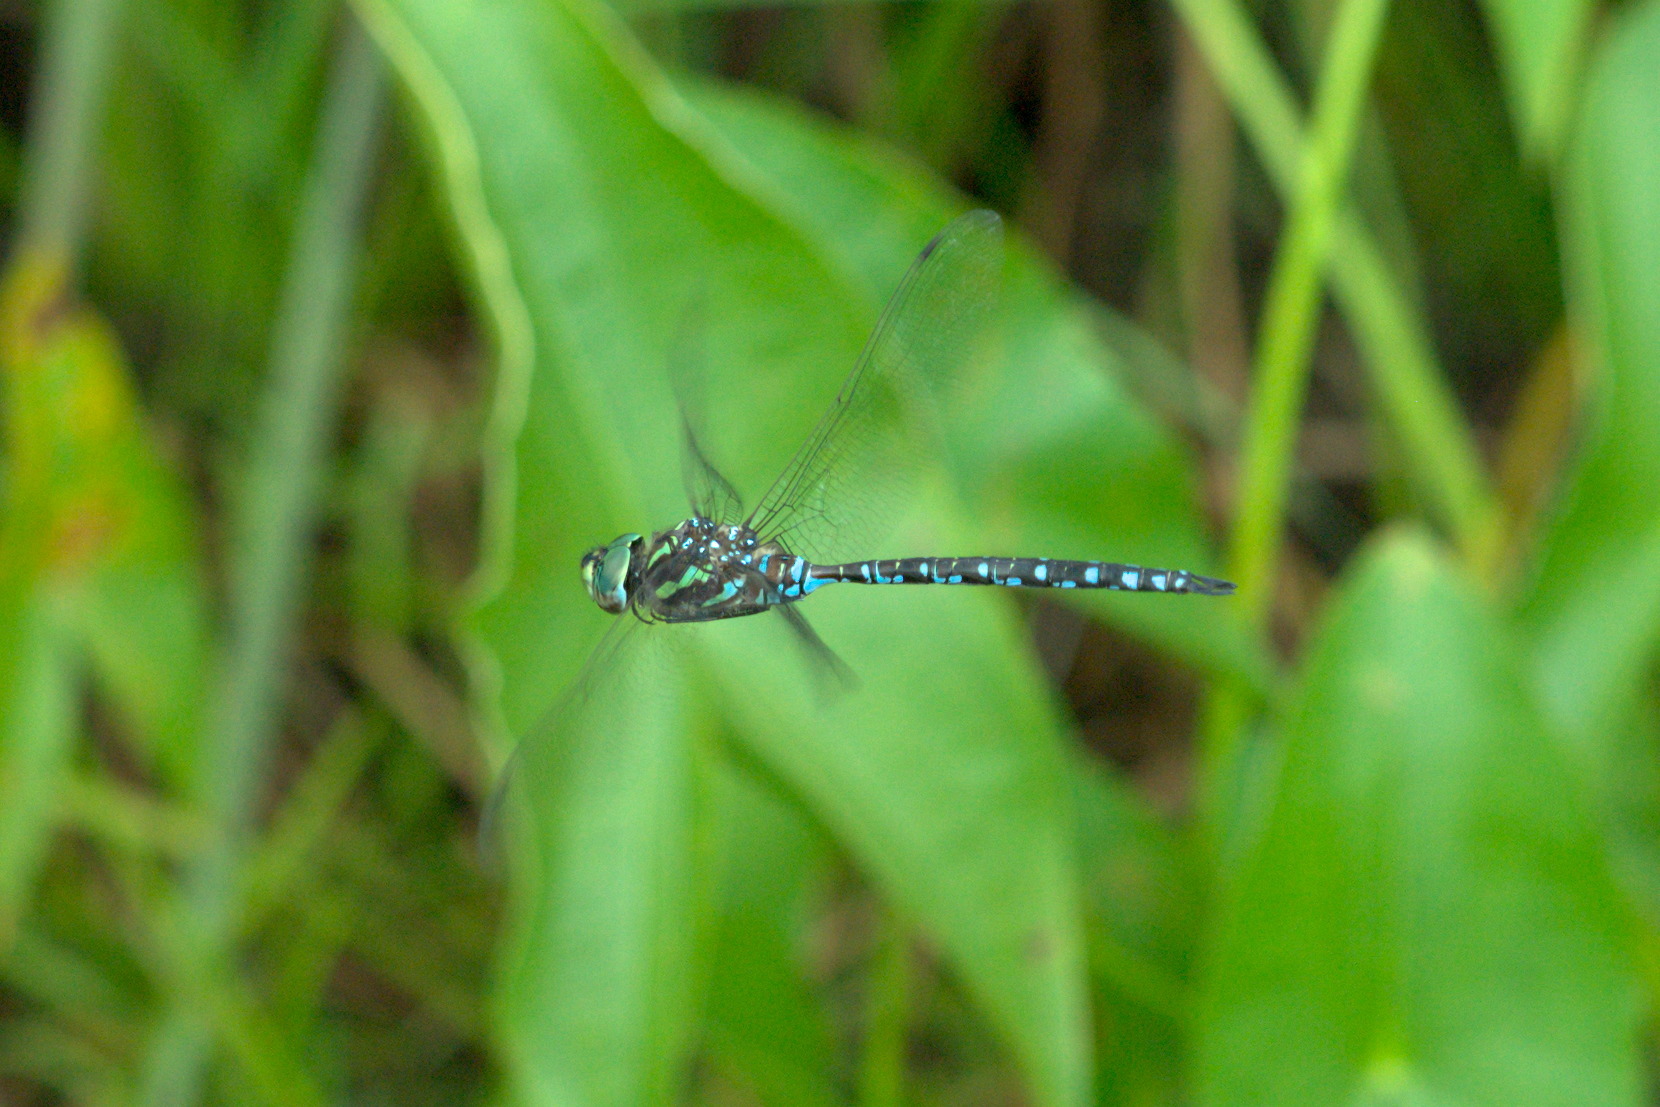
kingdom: Animalia
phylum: Arthropoda
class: Insecta
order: Odonata
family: Aeshnidae
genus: Aeshna
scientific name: Aeshna verticalis
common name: Green-striped darner
